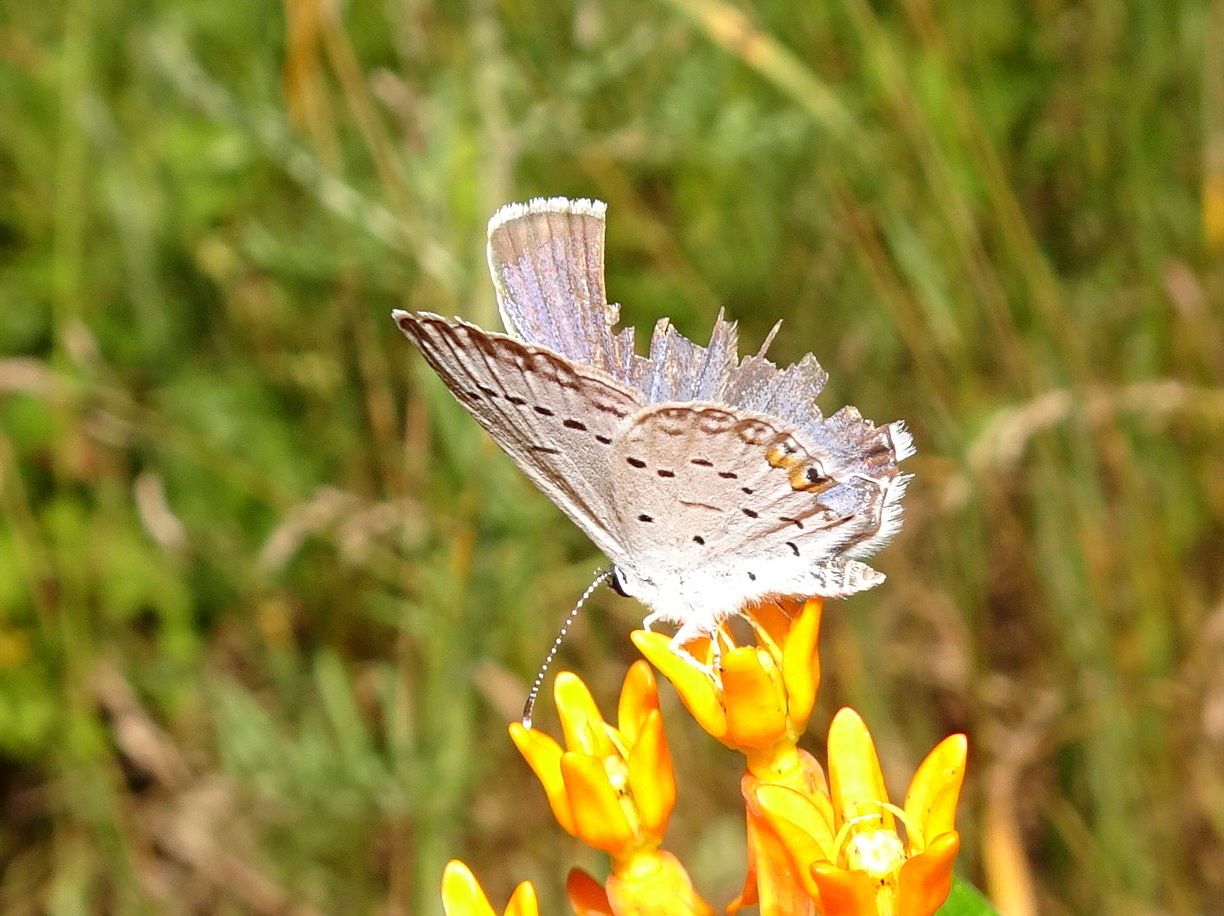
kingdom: Animalia
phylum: Arthropoda
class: Insecta
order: Lepidoptera
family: Lycaenidae
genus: Elkalyce
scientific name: Elkalyce comyntas
